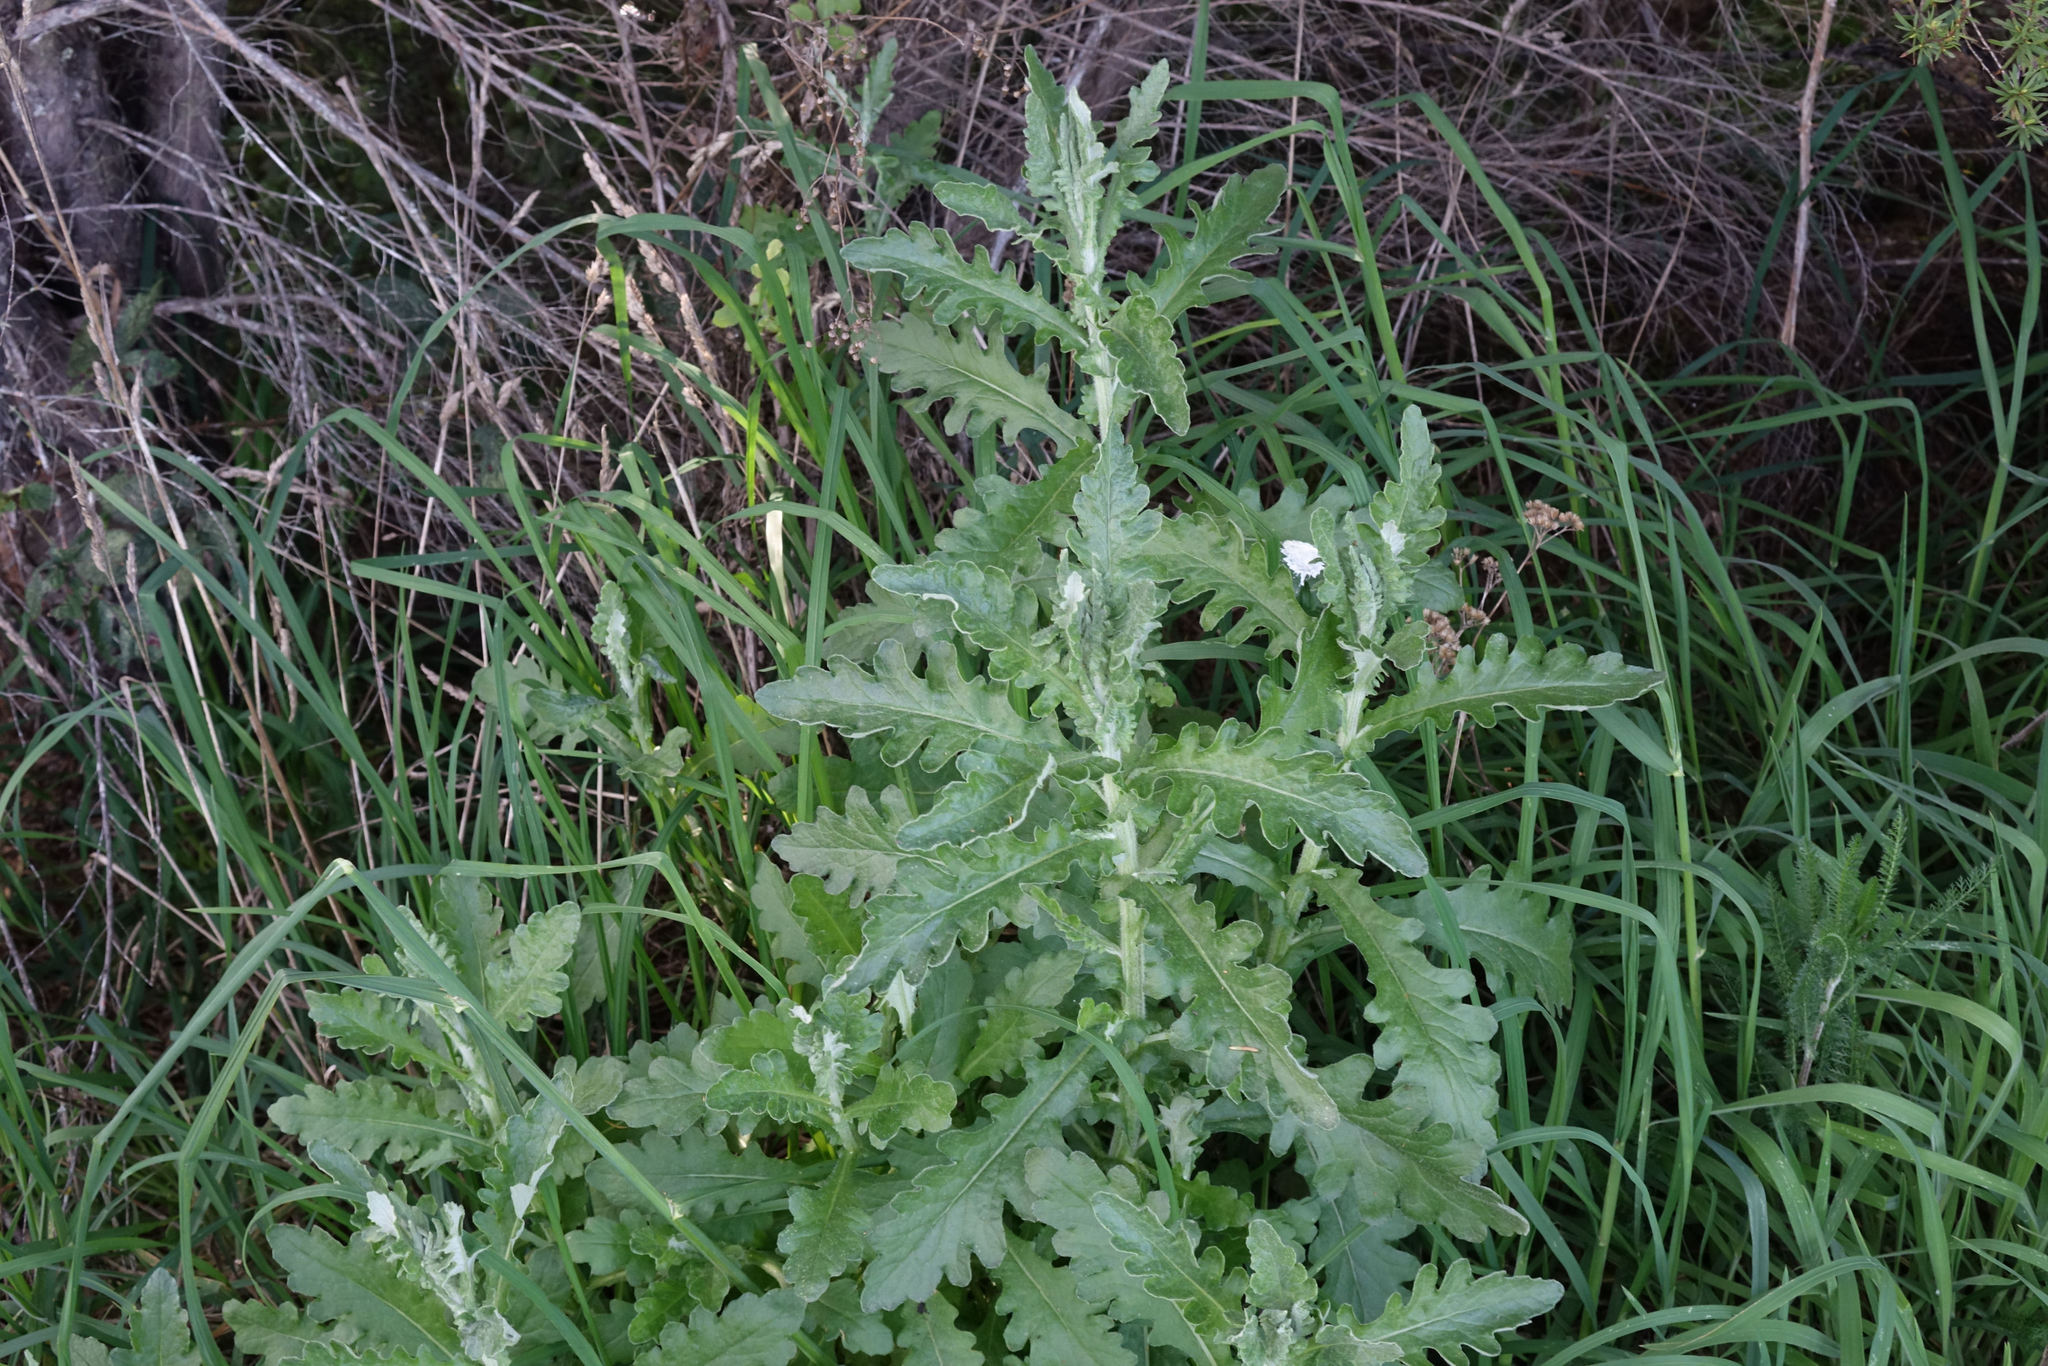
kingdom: Plantae
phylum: Tracheophyta
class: Magnoliopsida
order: Asterales
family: Asteraceae
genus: Senecio
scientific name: Senecio glomeratus
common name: Cutleaf burnweed
